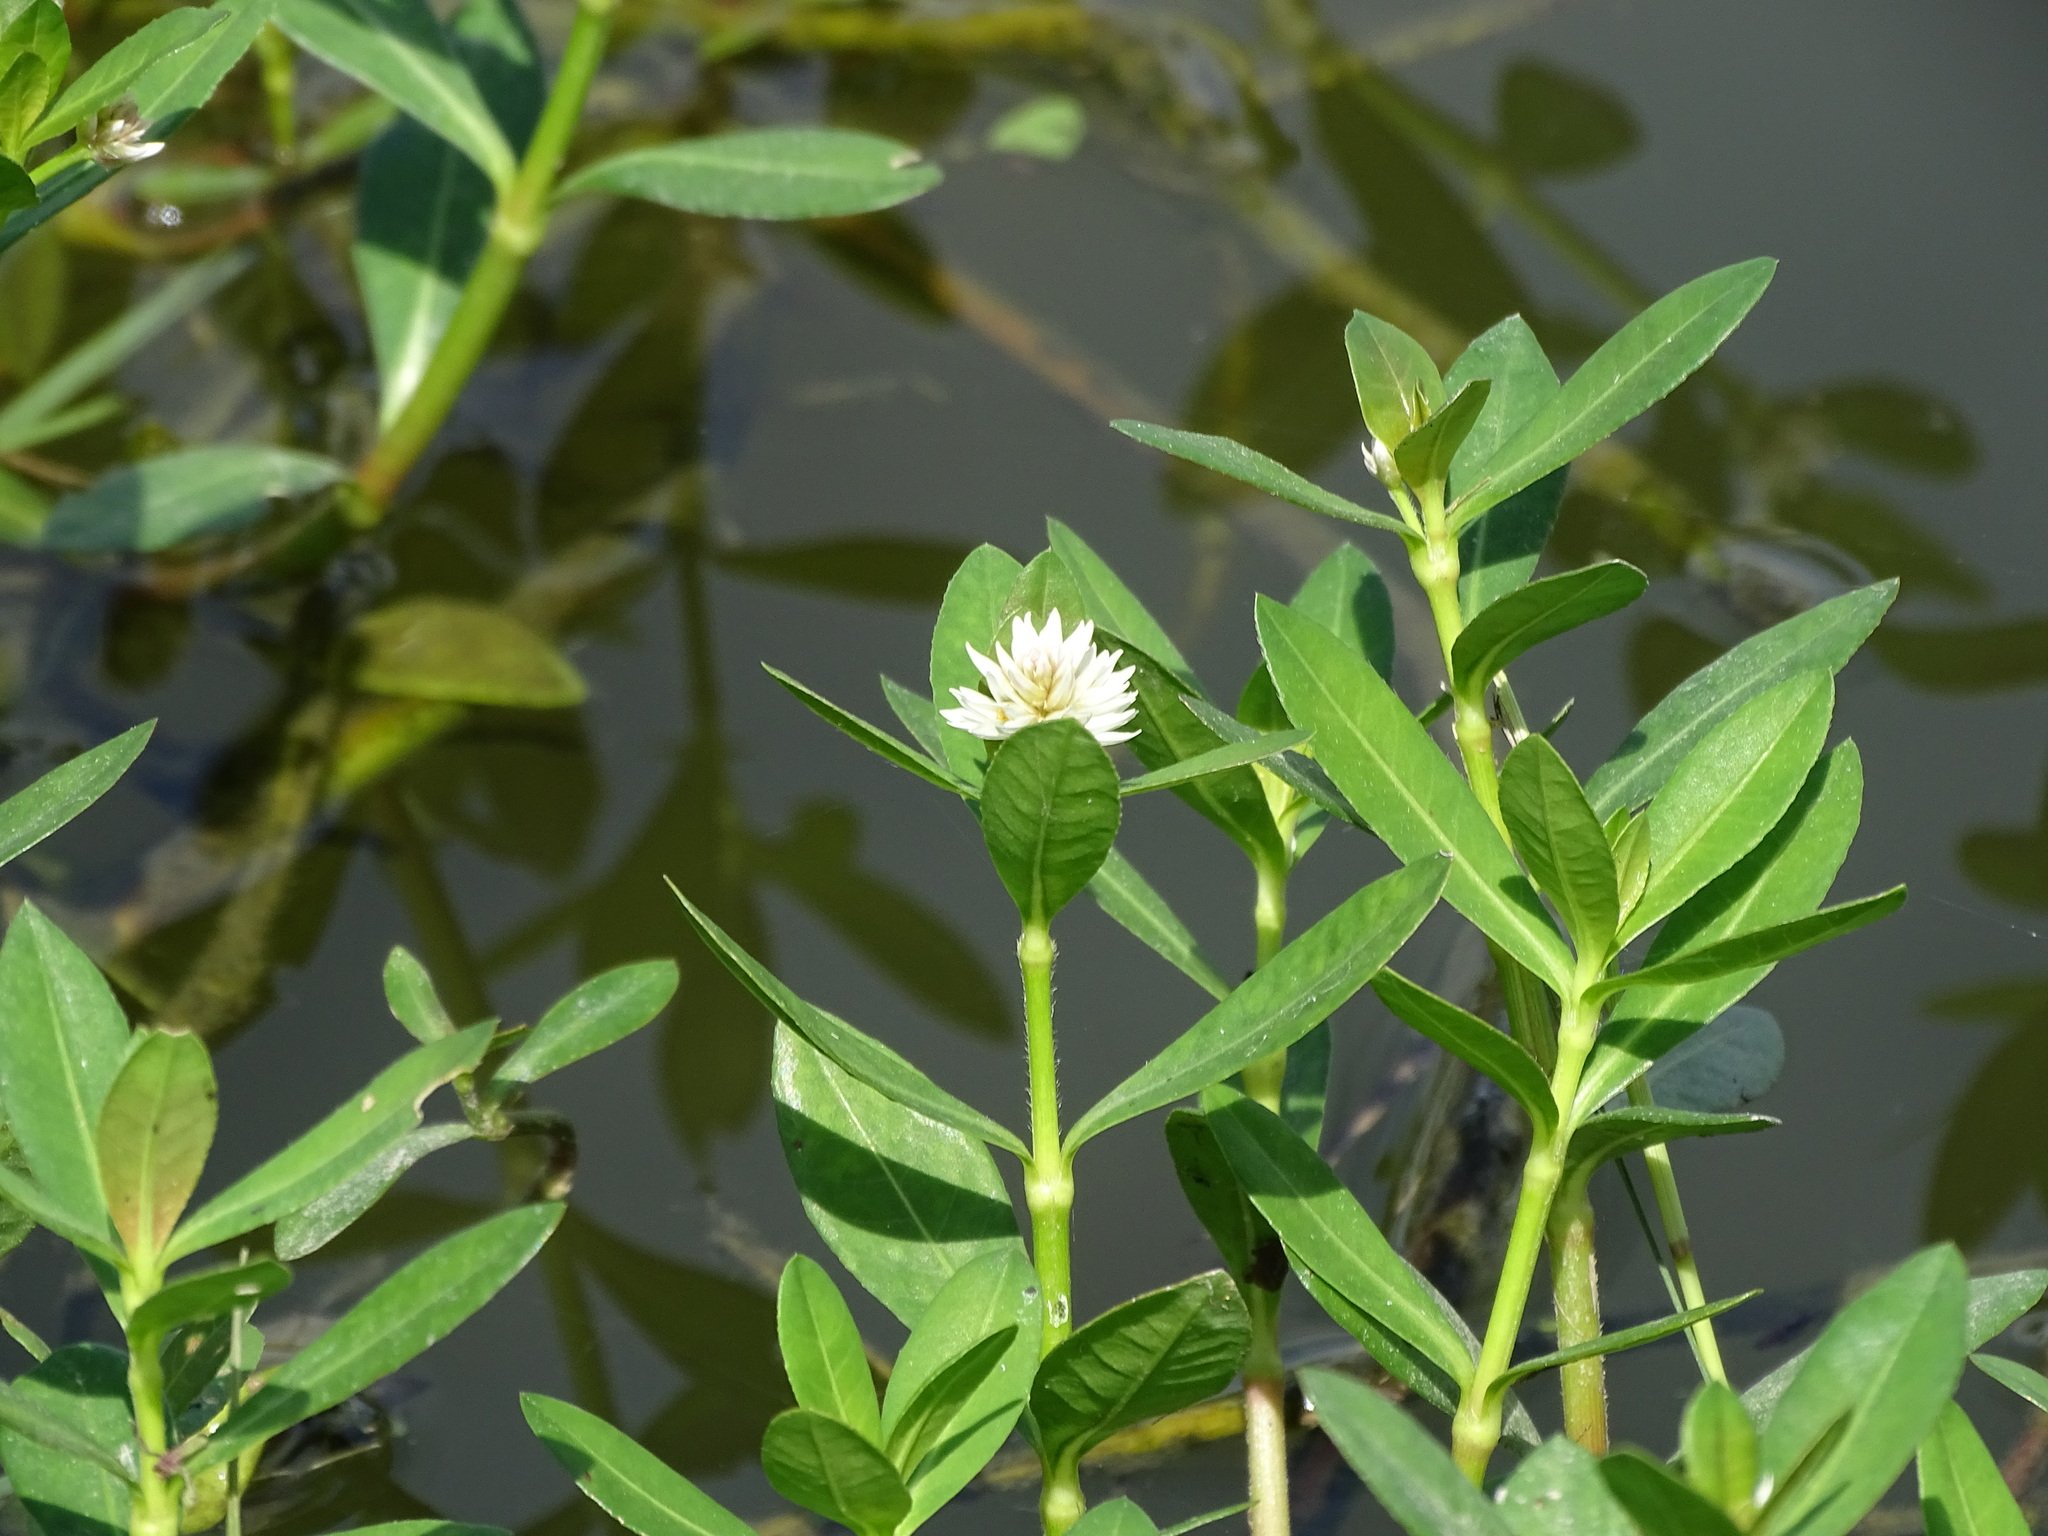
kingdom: Plantae
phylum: Tracheophyta
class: Magnoliopsida
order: Caryophyllales
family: Amaranthaceae
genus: Alternanthera
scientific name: Alternanthera philoxeroides
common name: Alligatorweed
